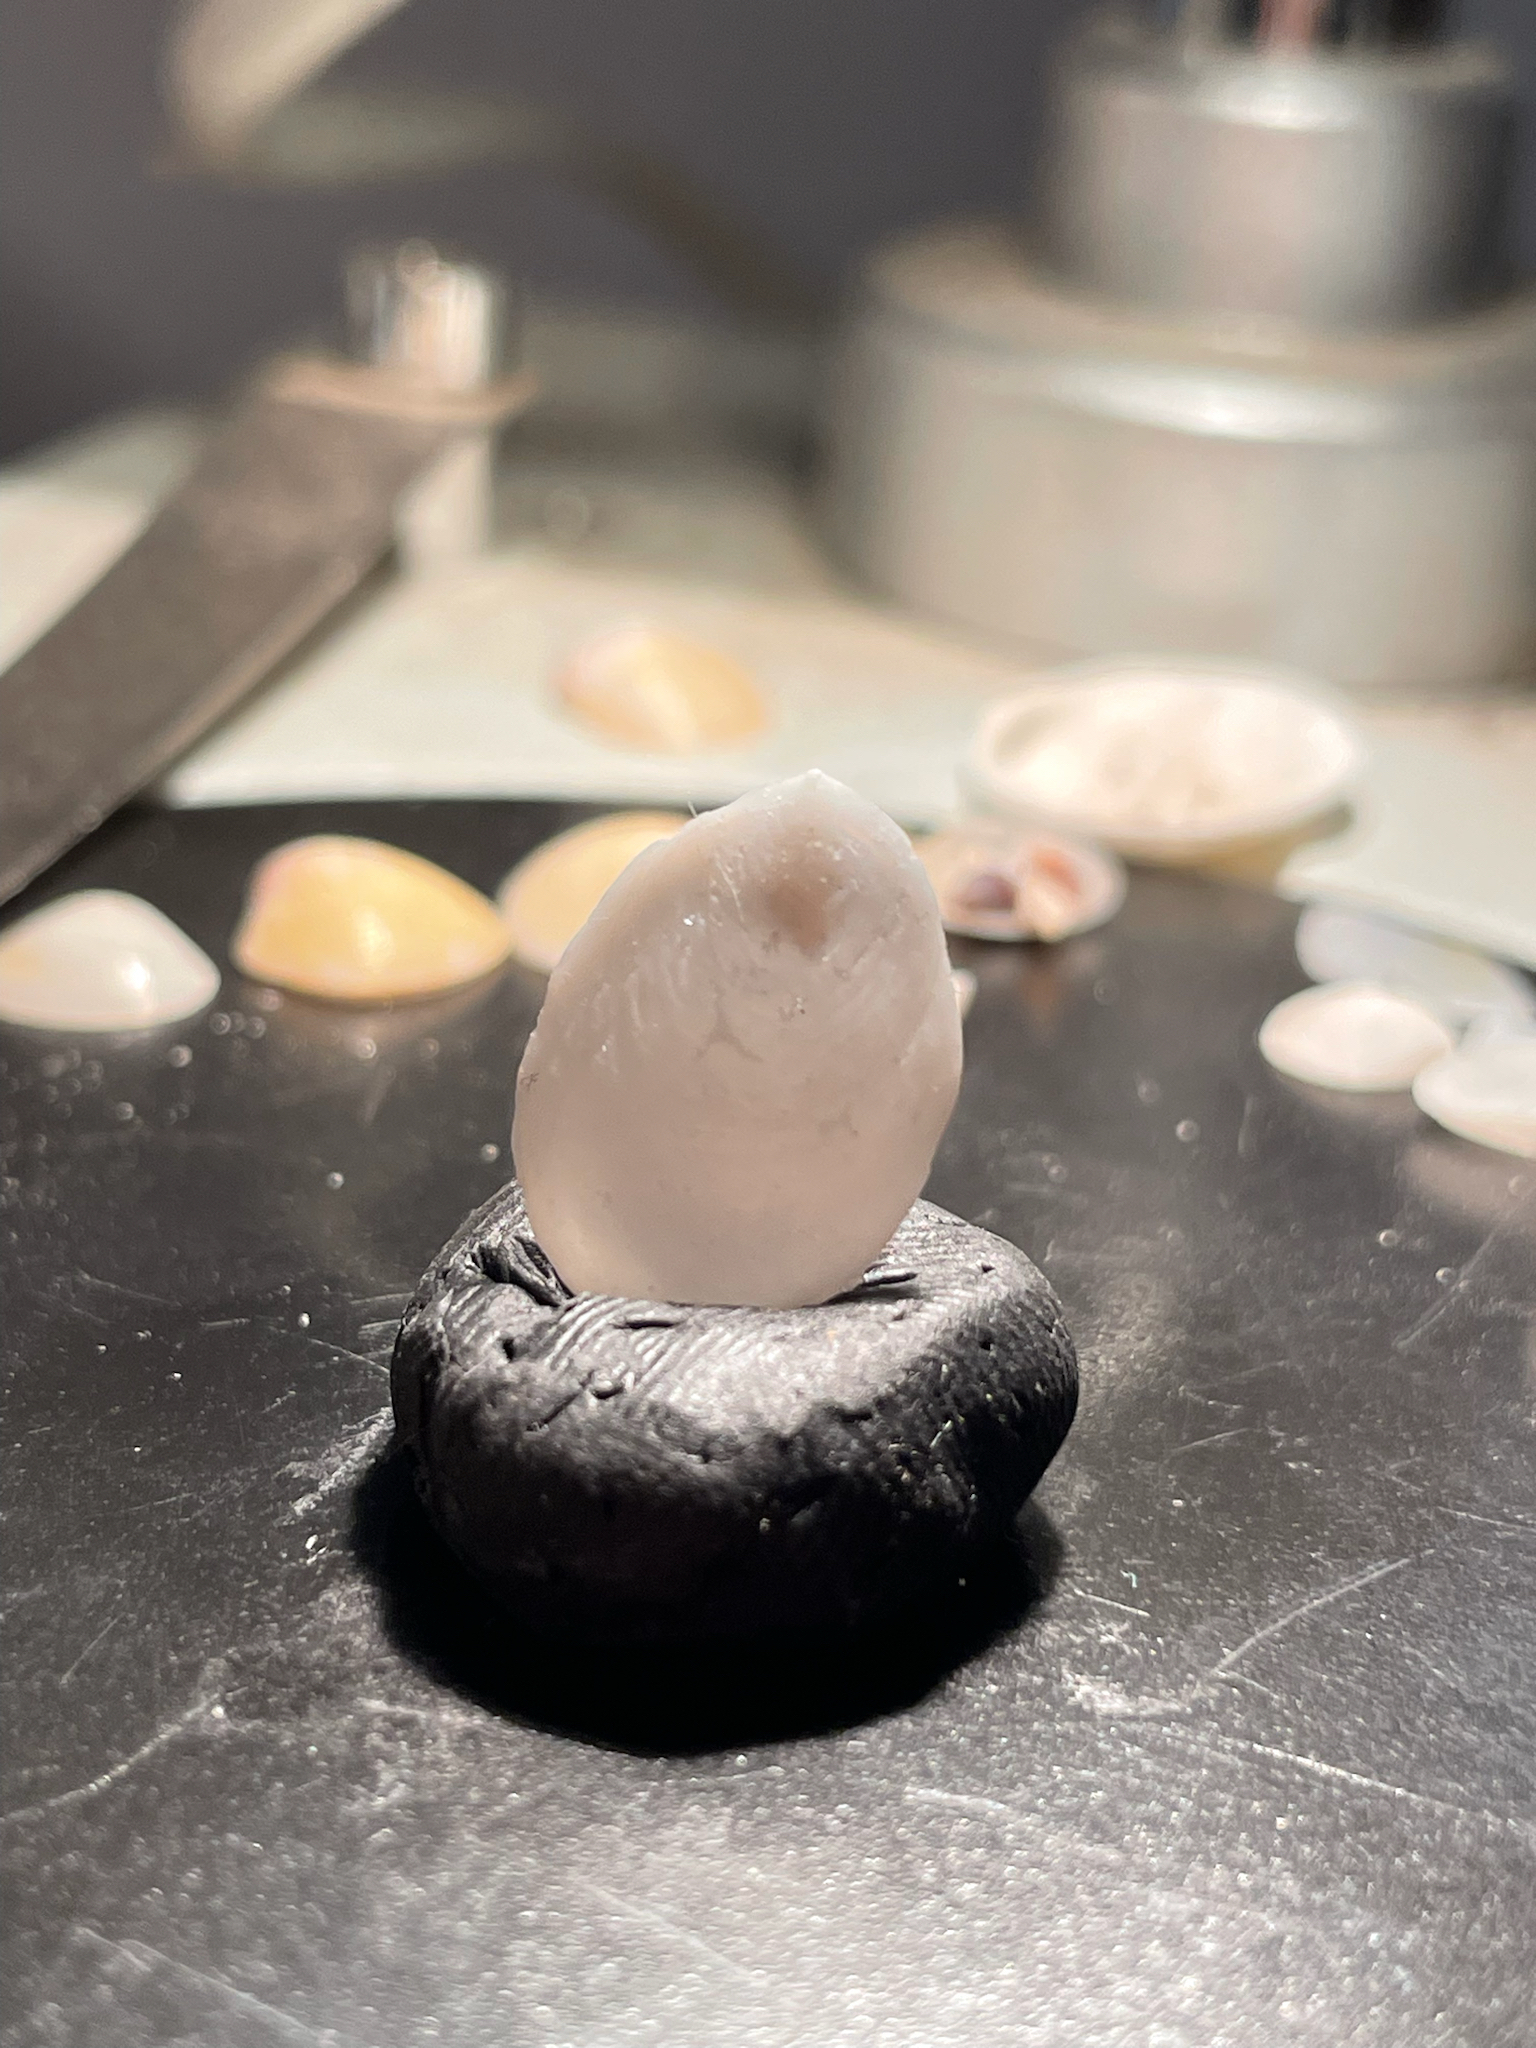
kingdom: Animalia
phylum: Mollusca
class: Gastropoda
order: Littorinimorpha
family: Calyptraeidae
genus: Crepidula
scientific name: Crepidula atrasolea
